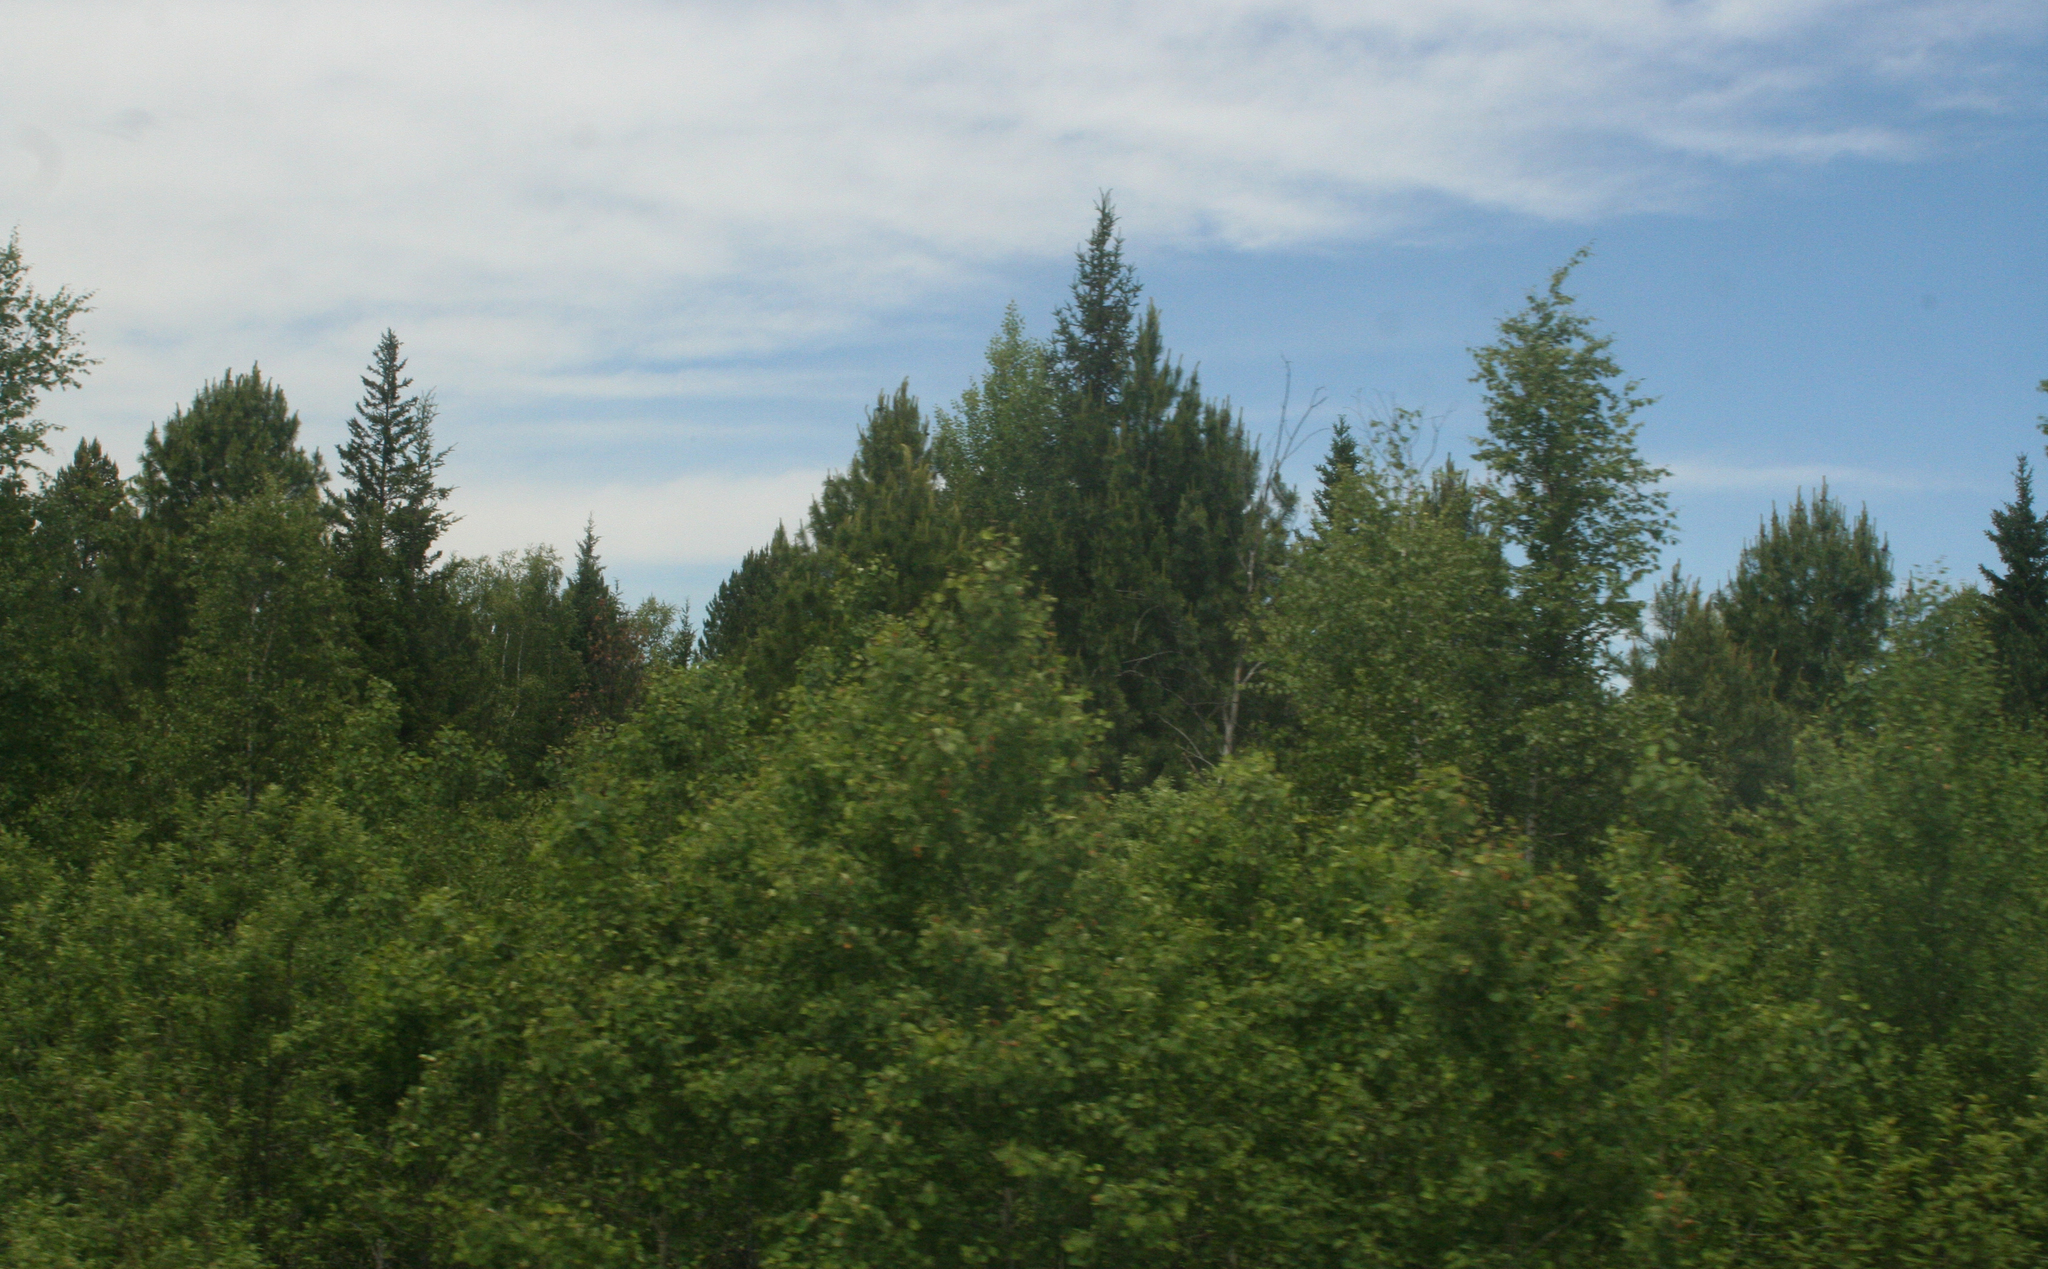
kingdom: Plantae
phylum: Tracheophyta
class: Magnoliopsida
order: Malpighiales
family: Salicaceae
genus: Populus
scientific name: Populus tremula
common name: European aspen
